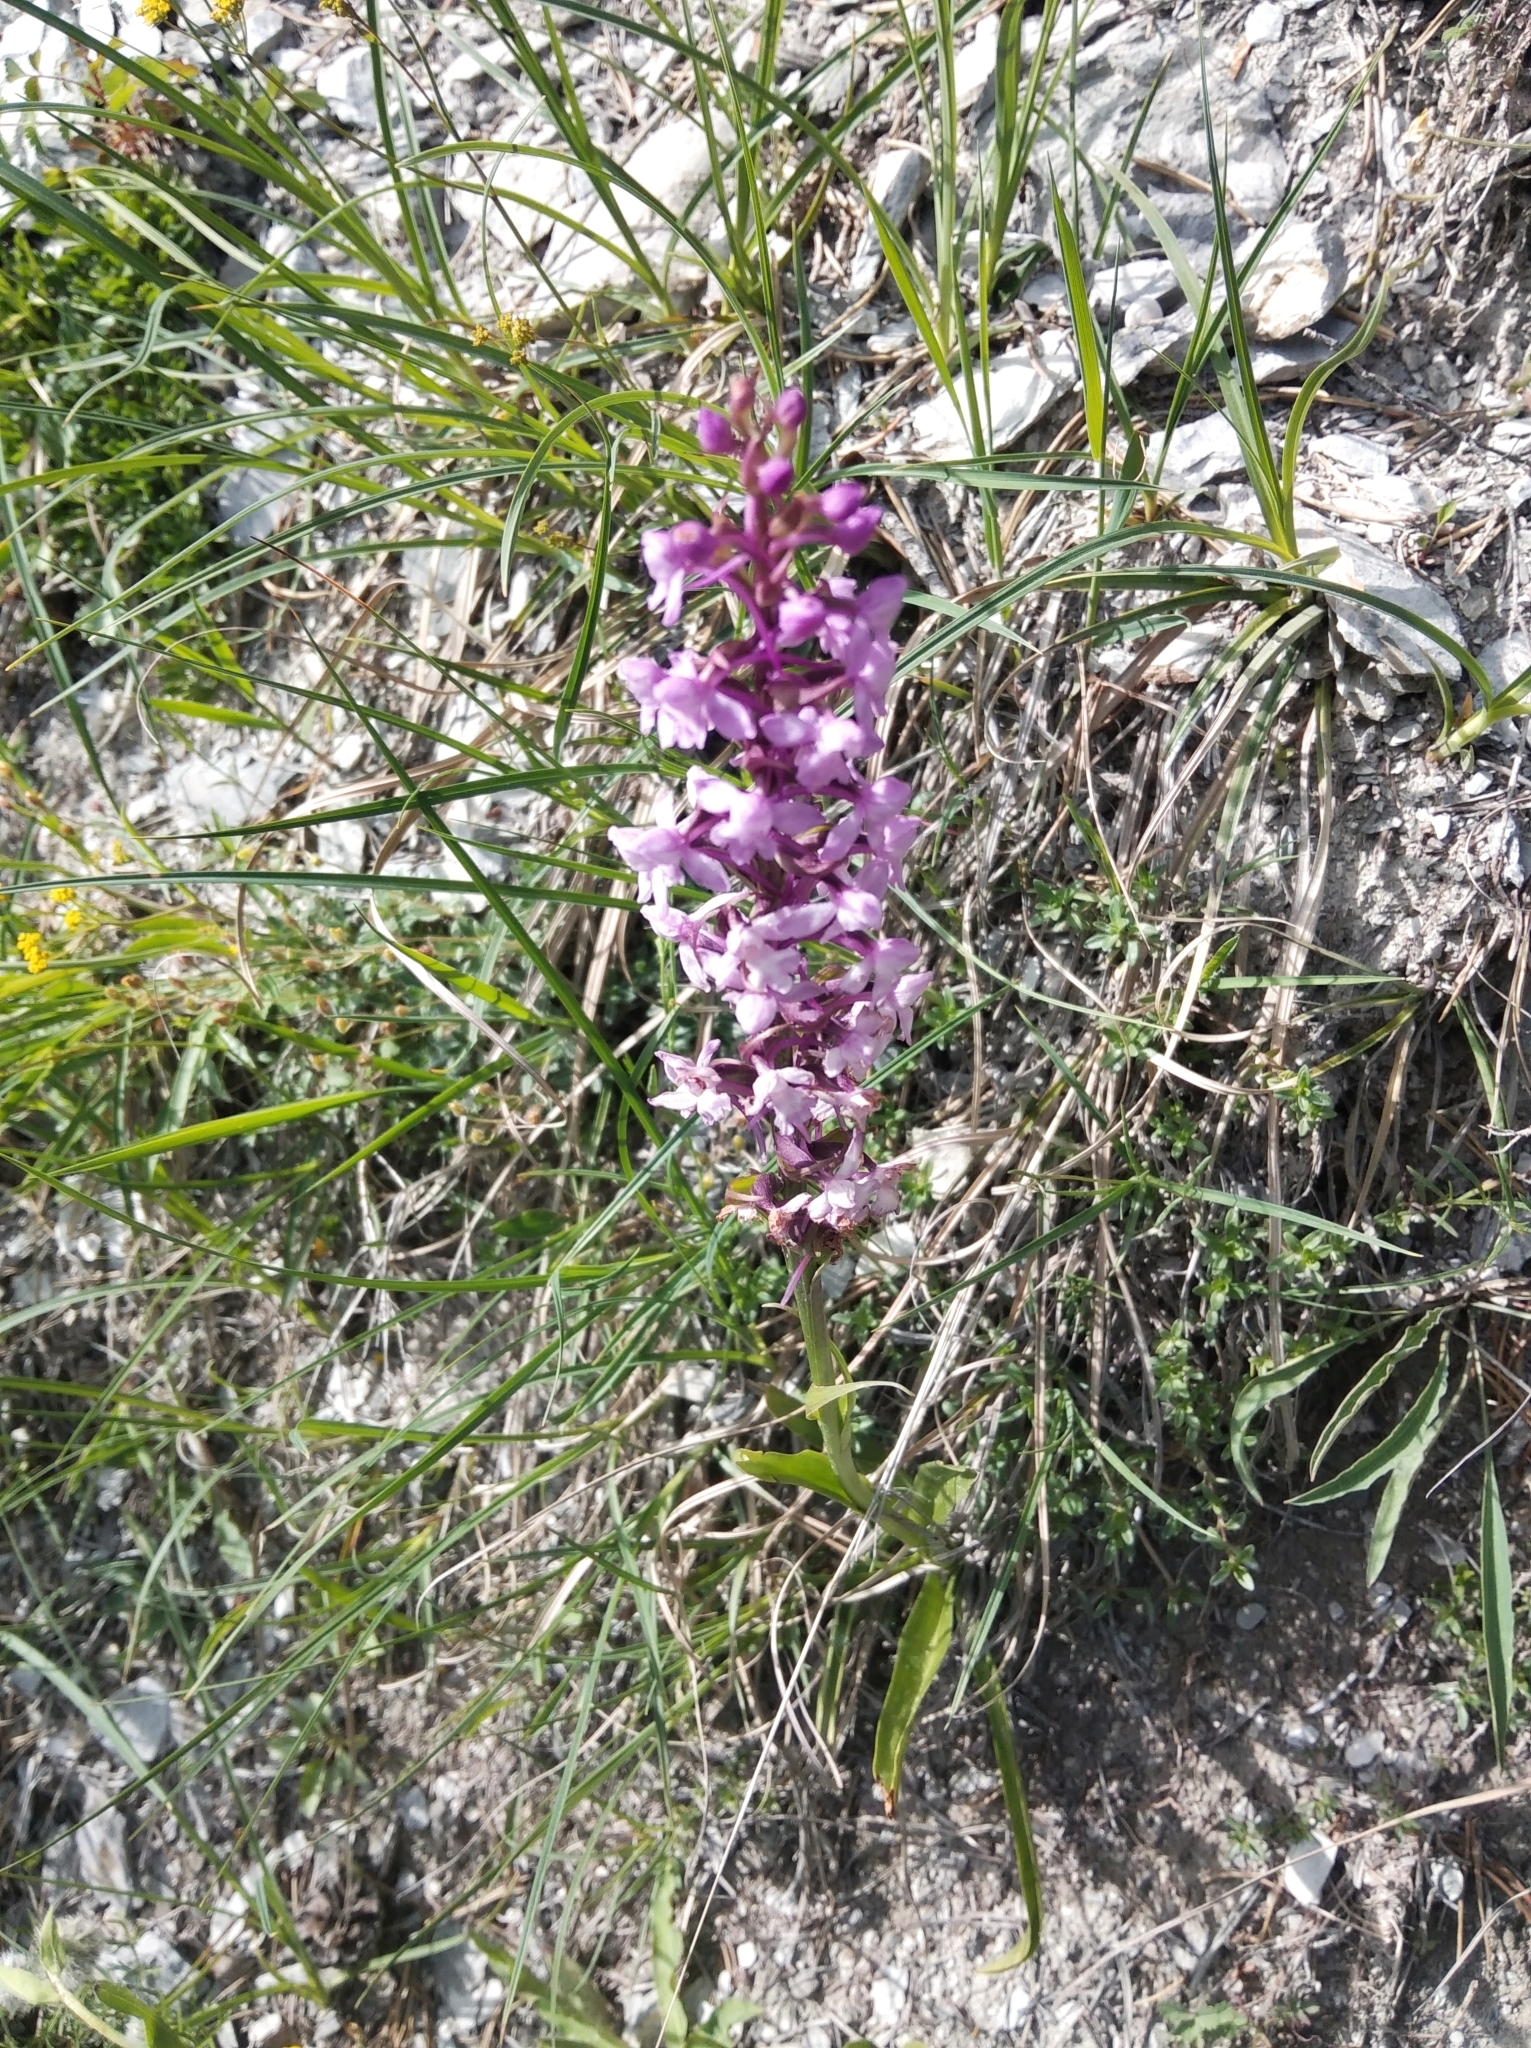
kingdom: Plantae
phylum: Tracheophyta
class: Liliopsida
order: Asparagales
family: Orchidaceae
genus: Gymnadenia
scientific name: Gymnadenia conopsea
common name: Fragrant orchid
